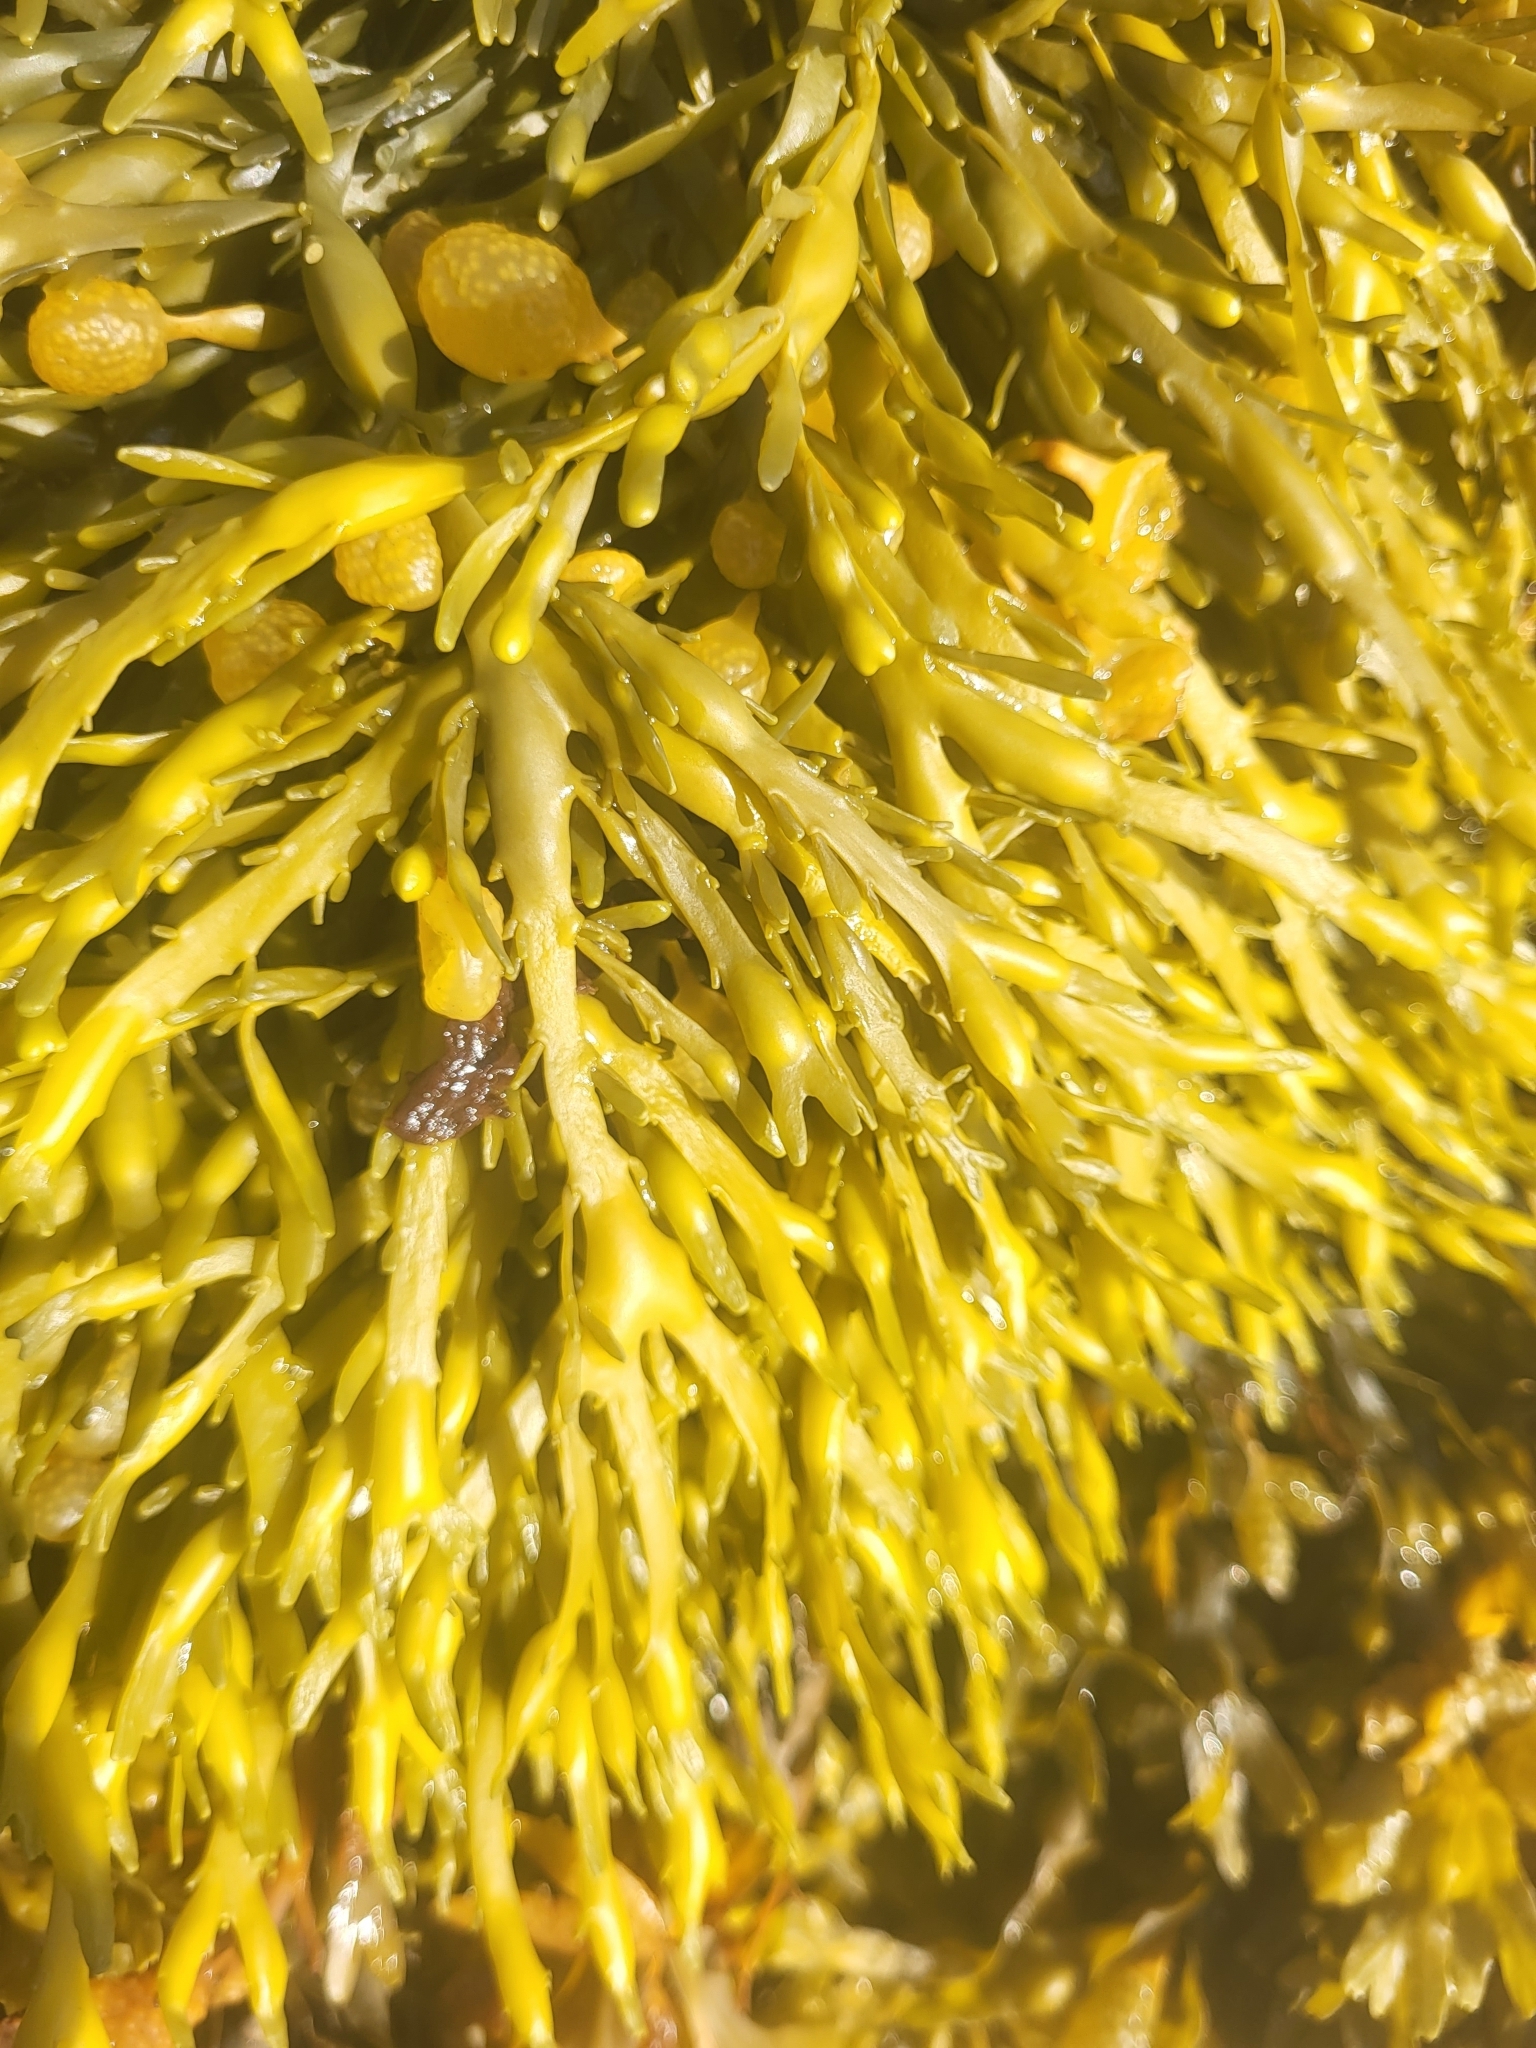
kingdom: Chromista
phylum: Ochrophyta
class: Phaeophyceae
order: Fucales
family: Fucaceae
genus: Ascophyllum
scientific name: Ascophyllum nodosum
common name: Knotted wrack
